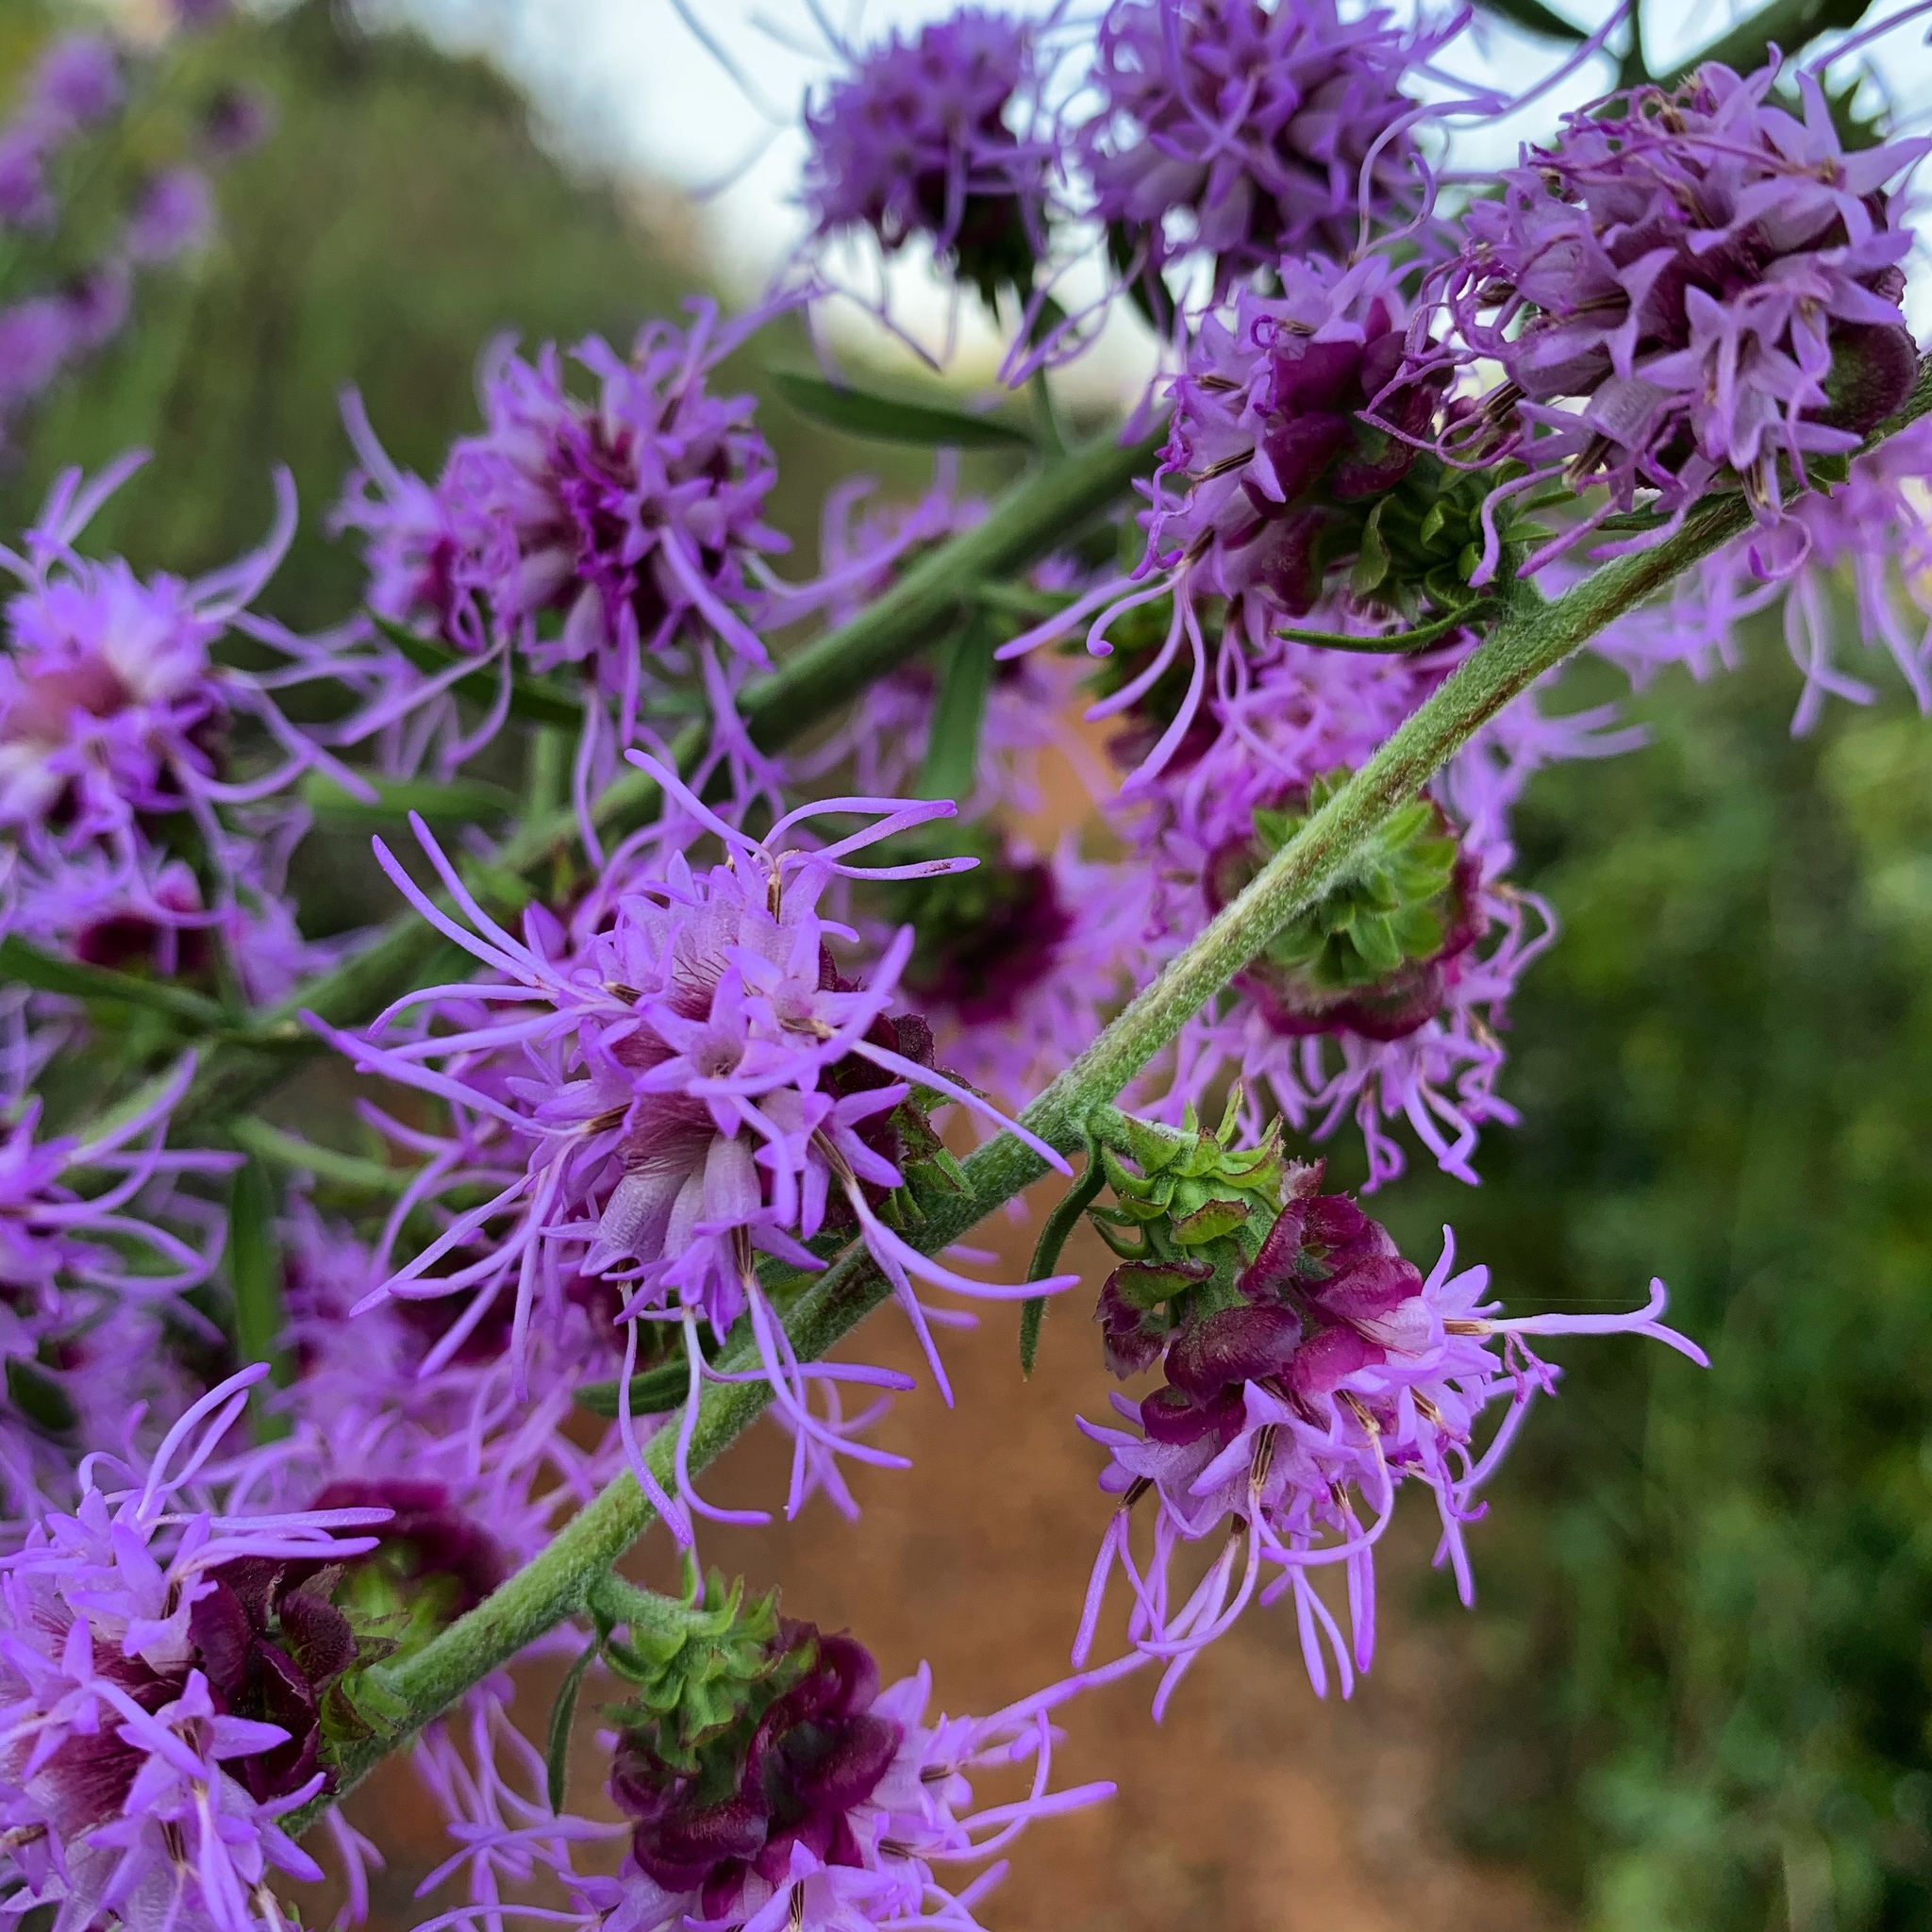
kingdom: Plantae
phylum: Tracheophyta
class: Magnoliopsida
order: Asterales
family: Asteraceae
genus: Liatris
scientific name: Liatris aspera
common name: Lacerate blazing-star
